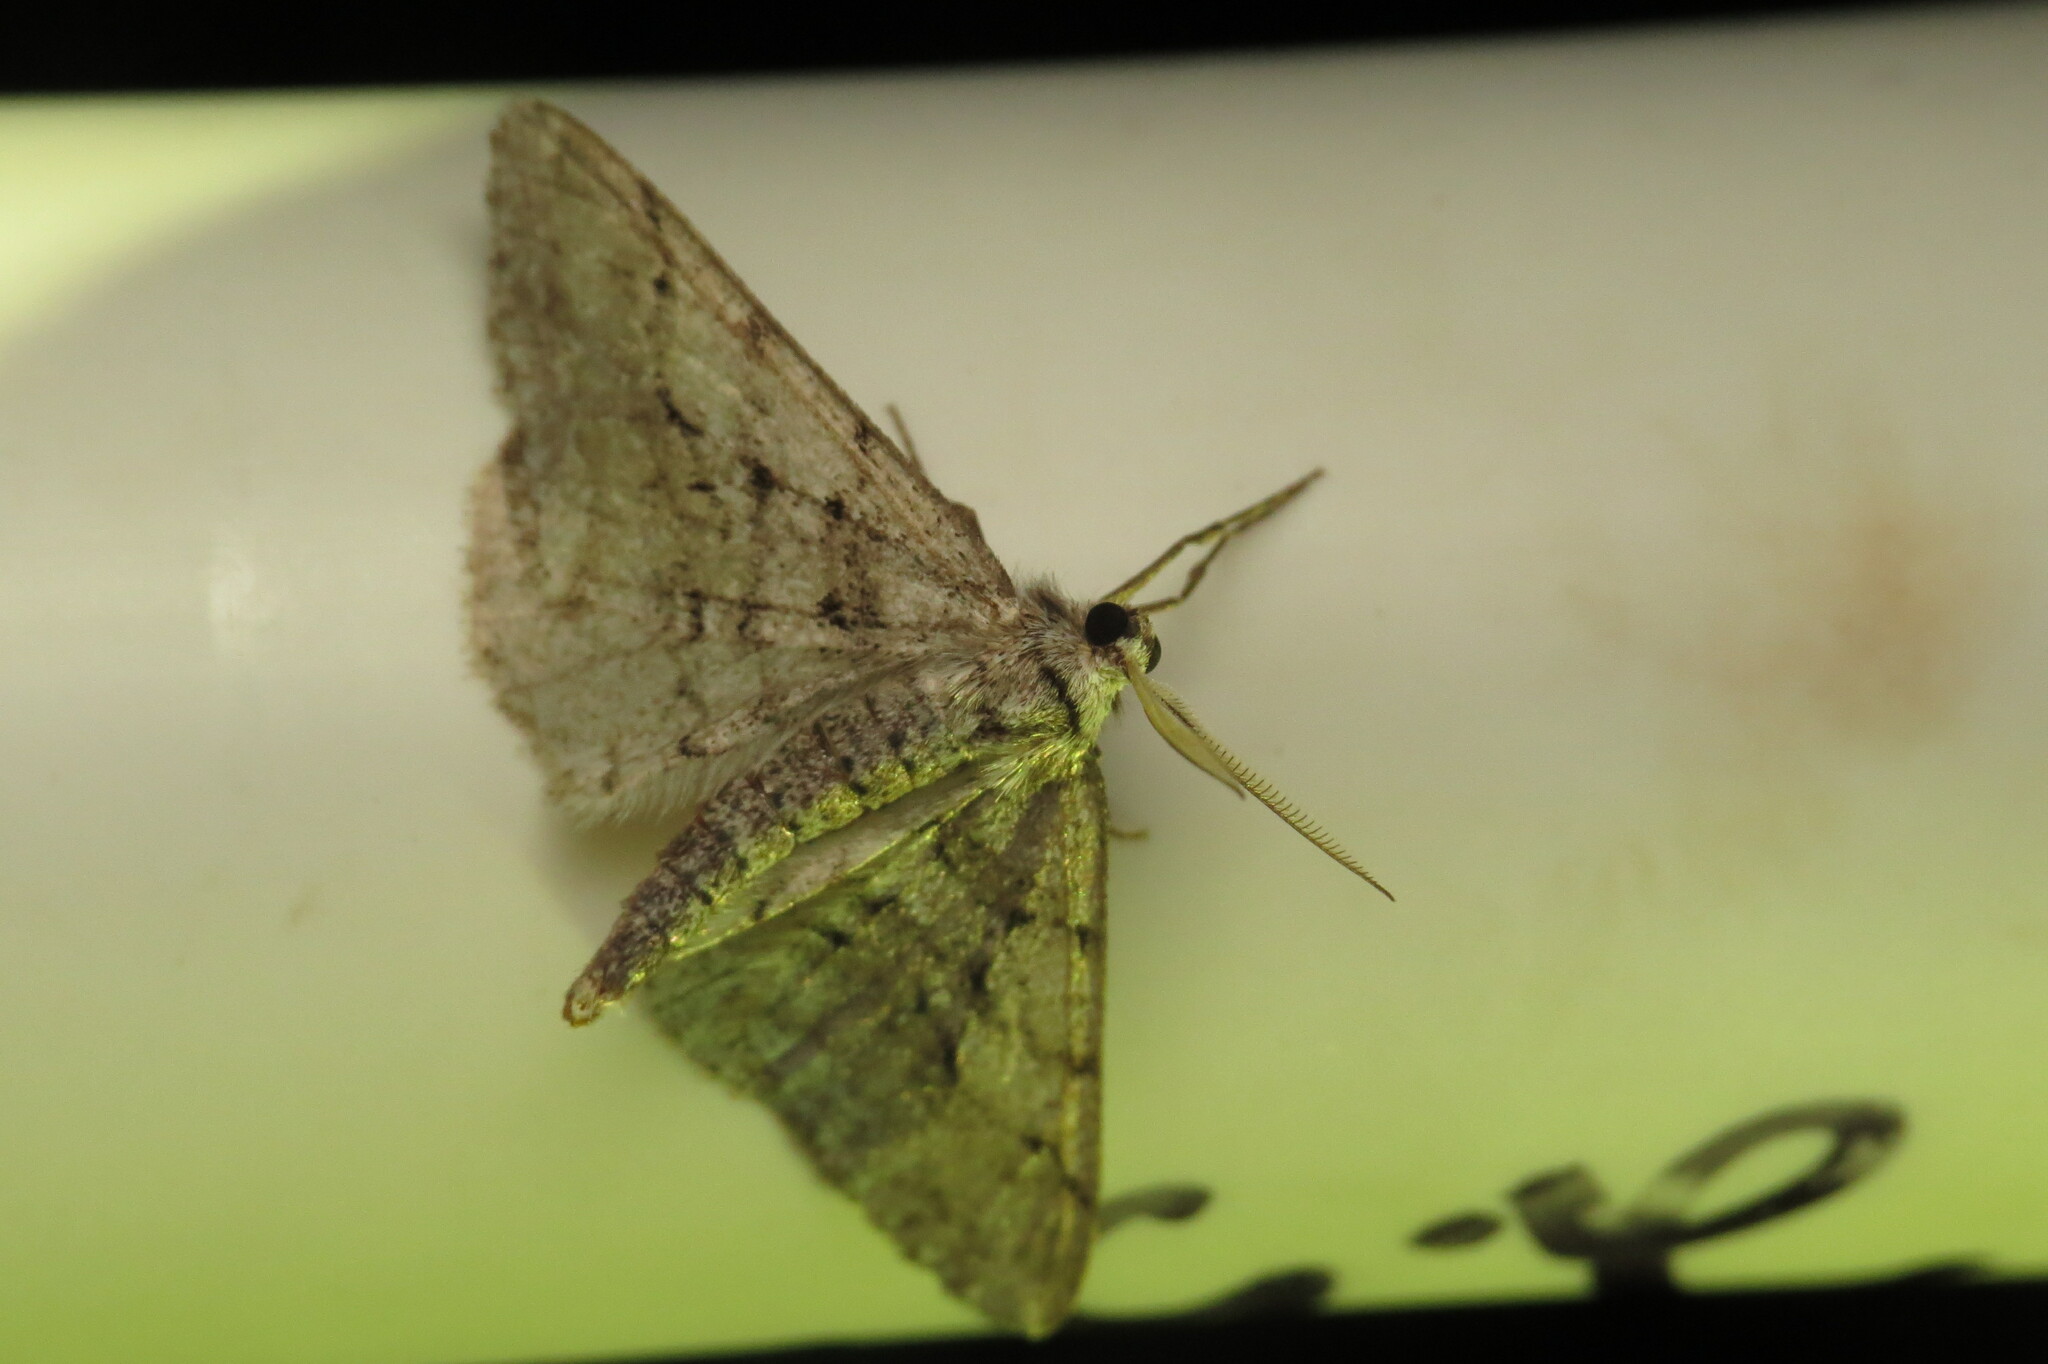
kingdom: Animalia
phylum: Arthropoda
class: Insecta
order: Lepidoptera
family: Geometridae
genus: Phigalia
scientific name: Phigalia titea
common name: Spiny looper
